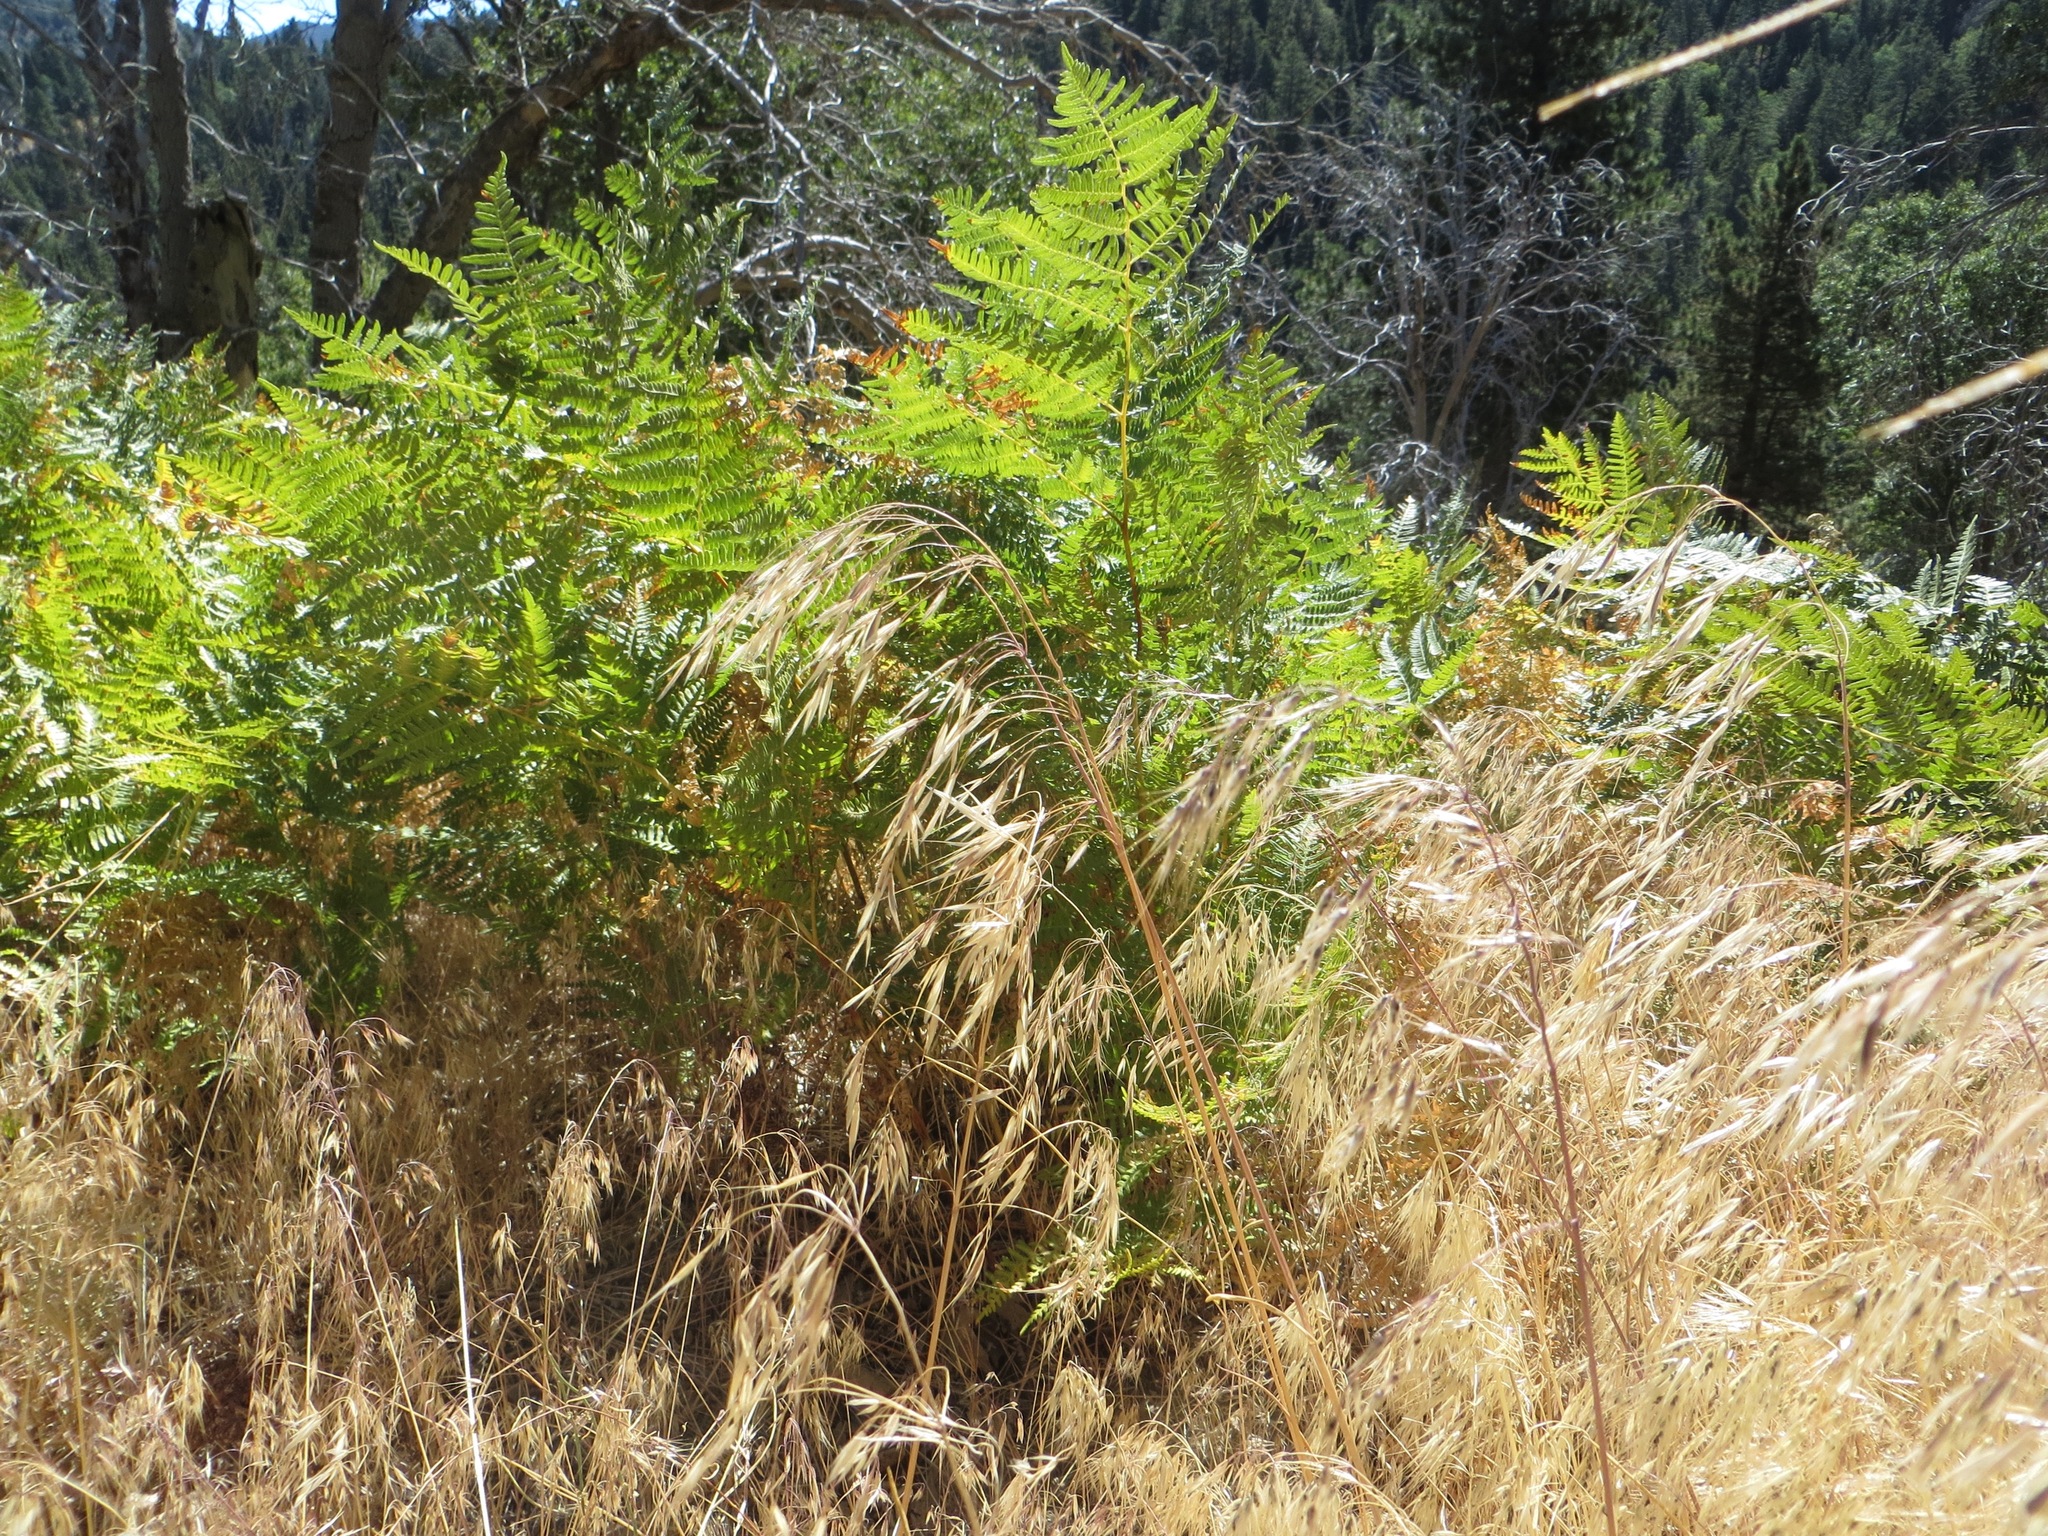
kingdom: Plantae
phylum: Tracheophyta
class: Polypodiopsida
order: Polypodiales
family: Dennstaedtiaceae
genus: Pteridium
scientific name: Pteridium aquilinum
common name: Bracken
